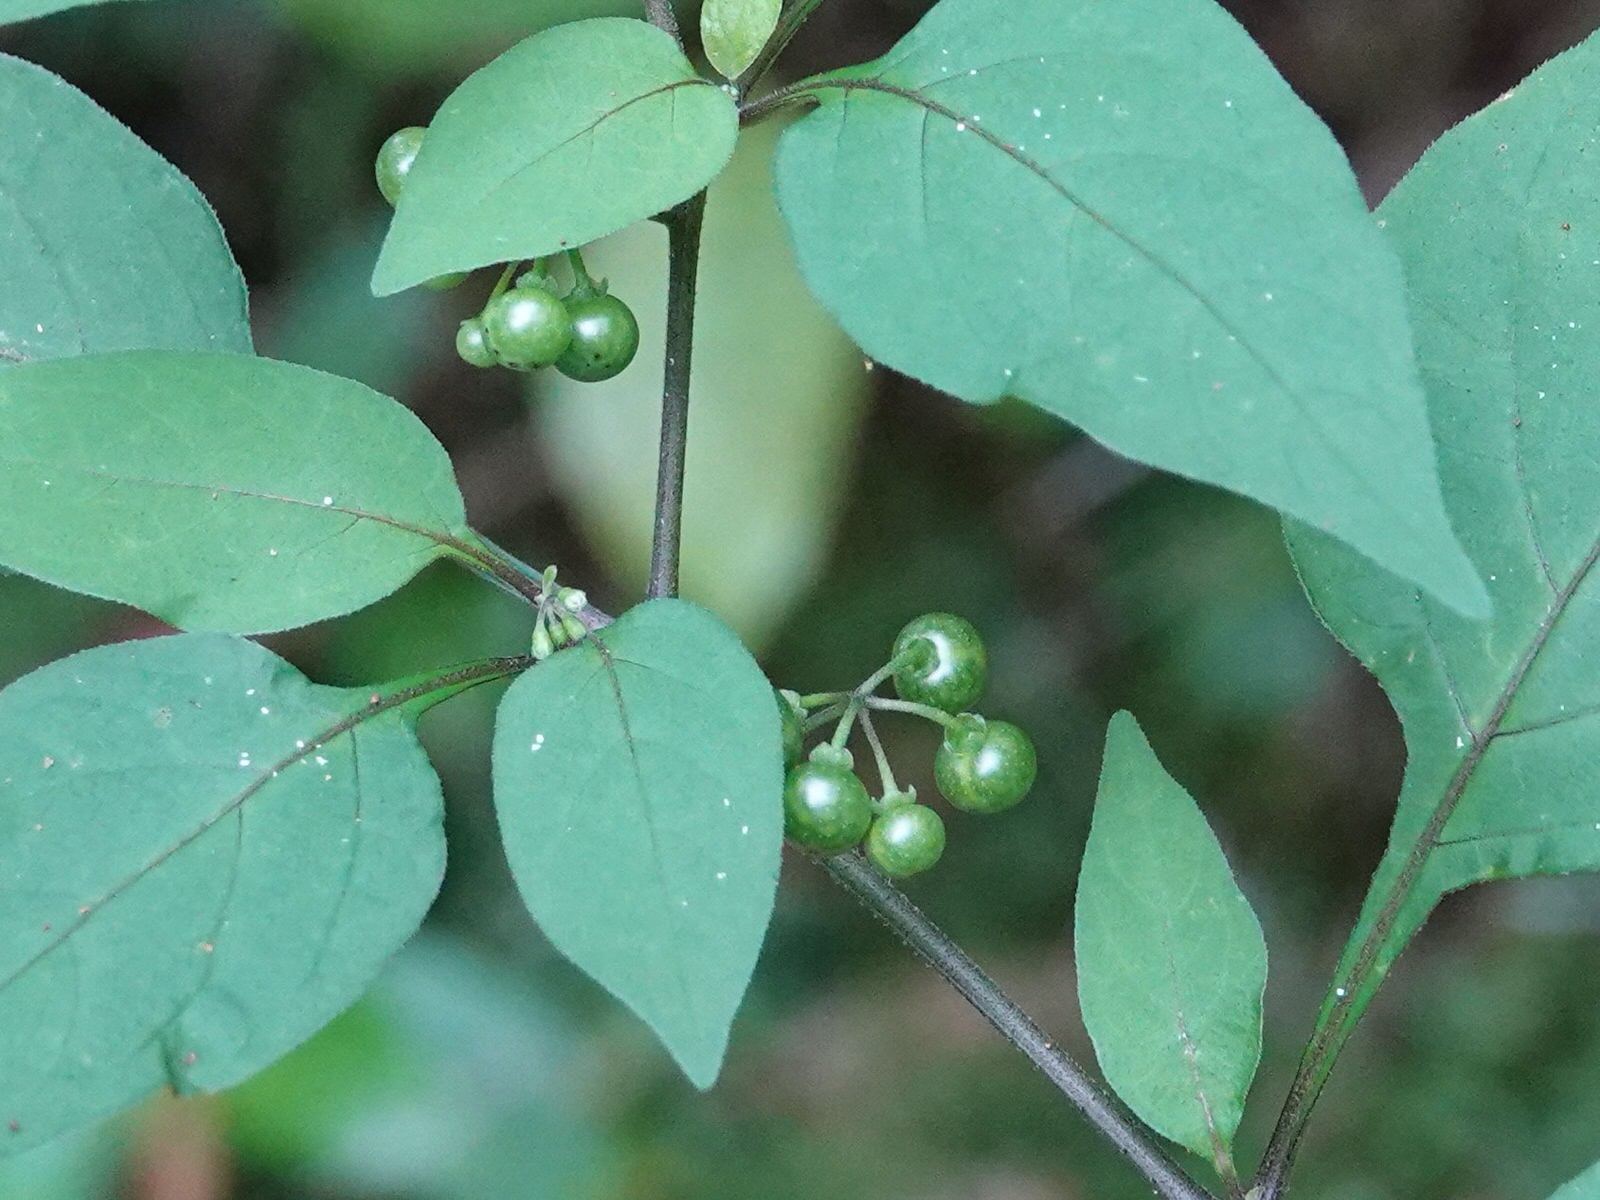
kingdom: Plantae
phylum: Tracheophyta
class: Magnoliopsida
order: Solanales
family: Solanaceae
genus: Solanum
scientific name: Solanum americanum
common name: American black nightshade
